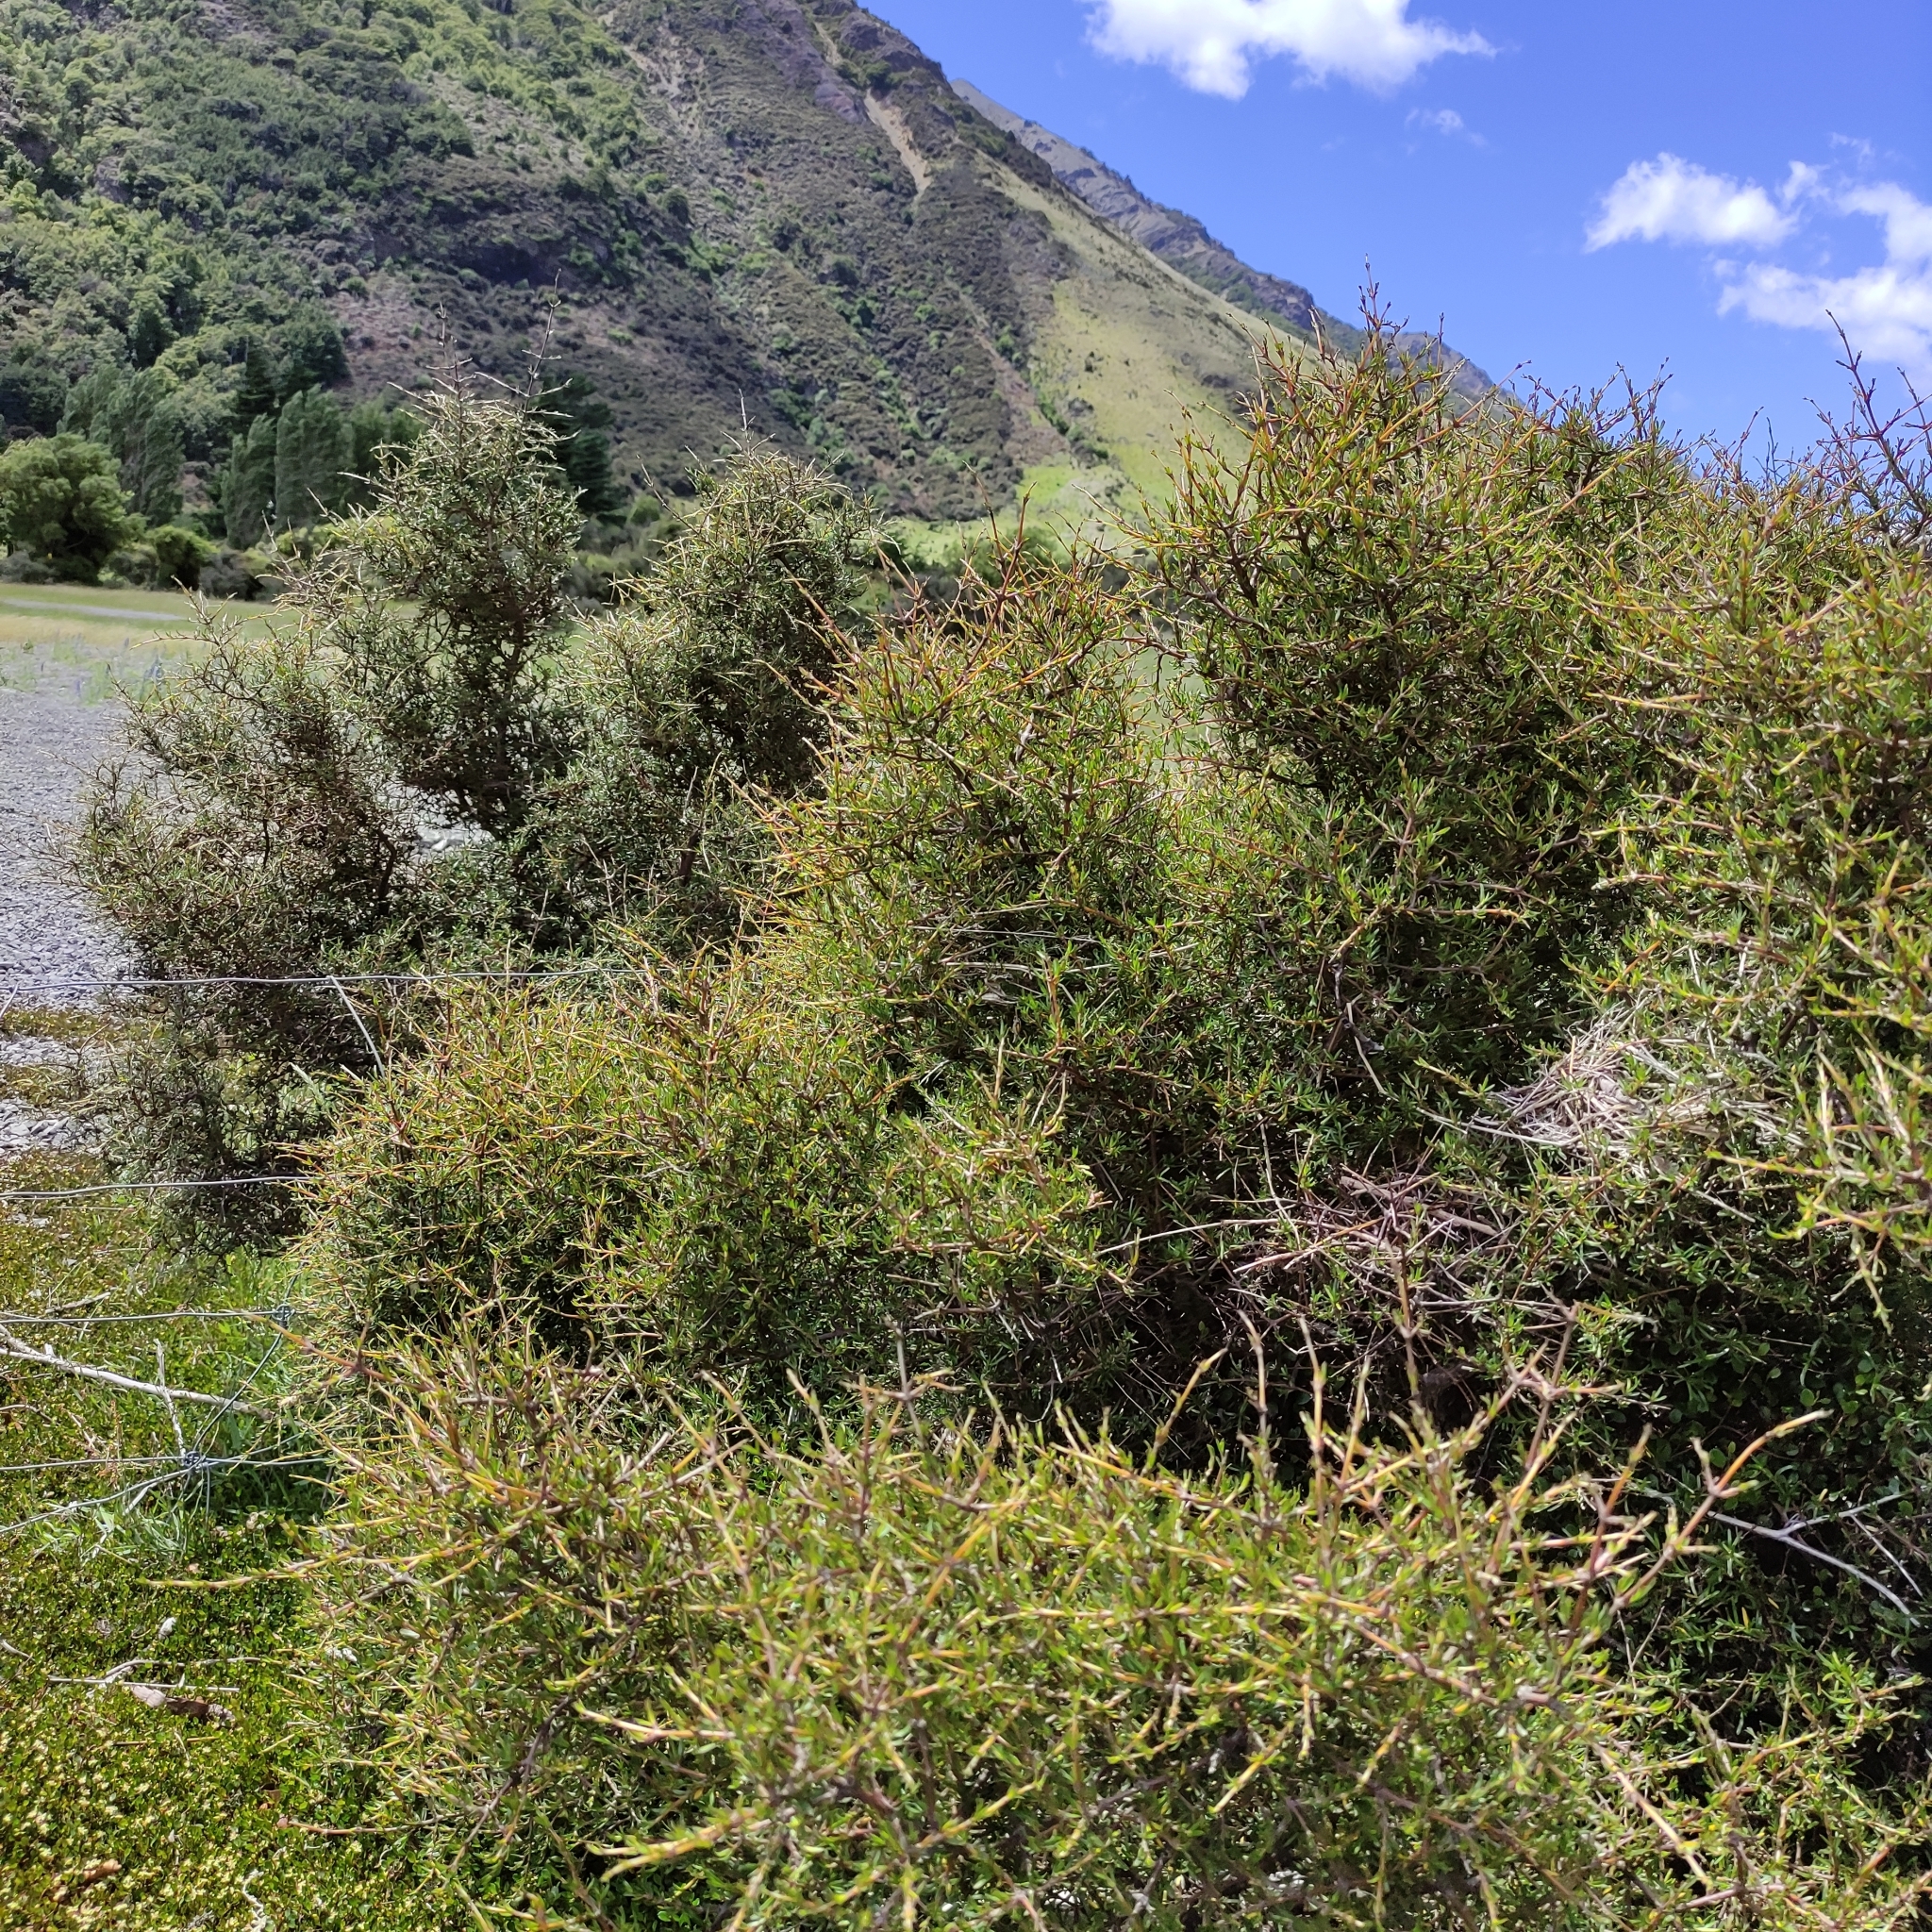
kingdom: Plantae
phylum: Tracheophyta
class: Magnoliopsida
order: Gentianales
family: Rubiaceae
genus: Coprosma
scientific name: Coprosma rugosa
